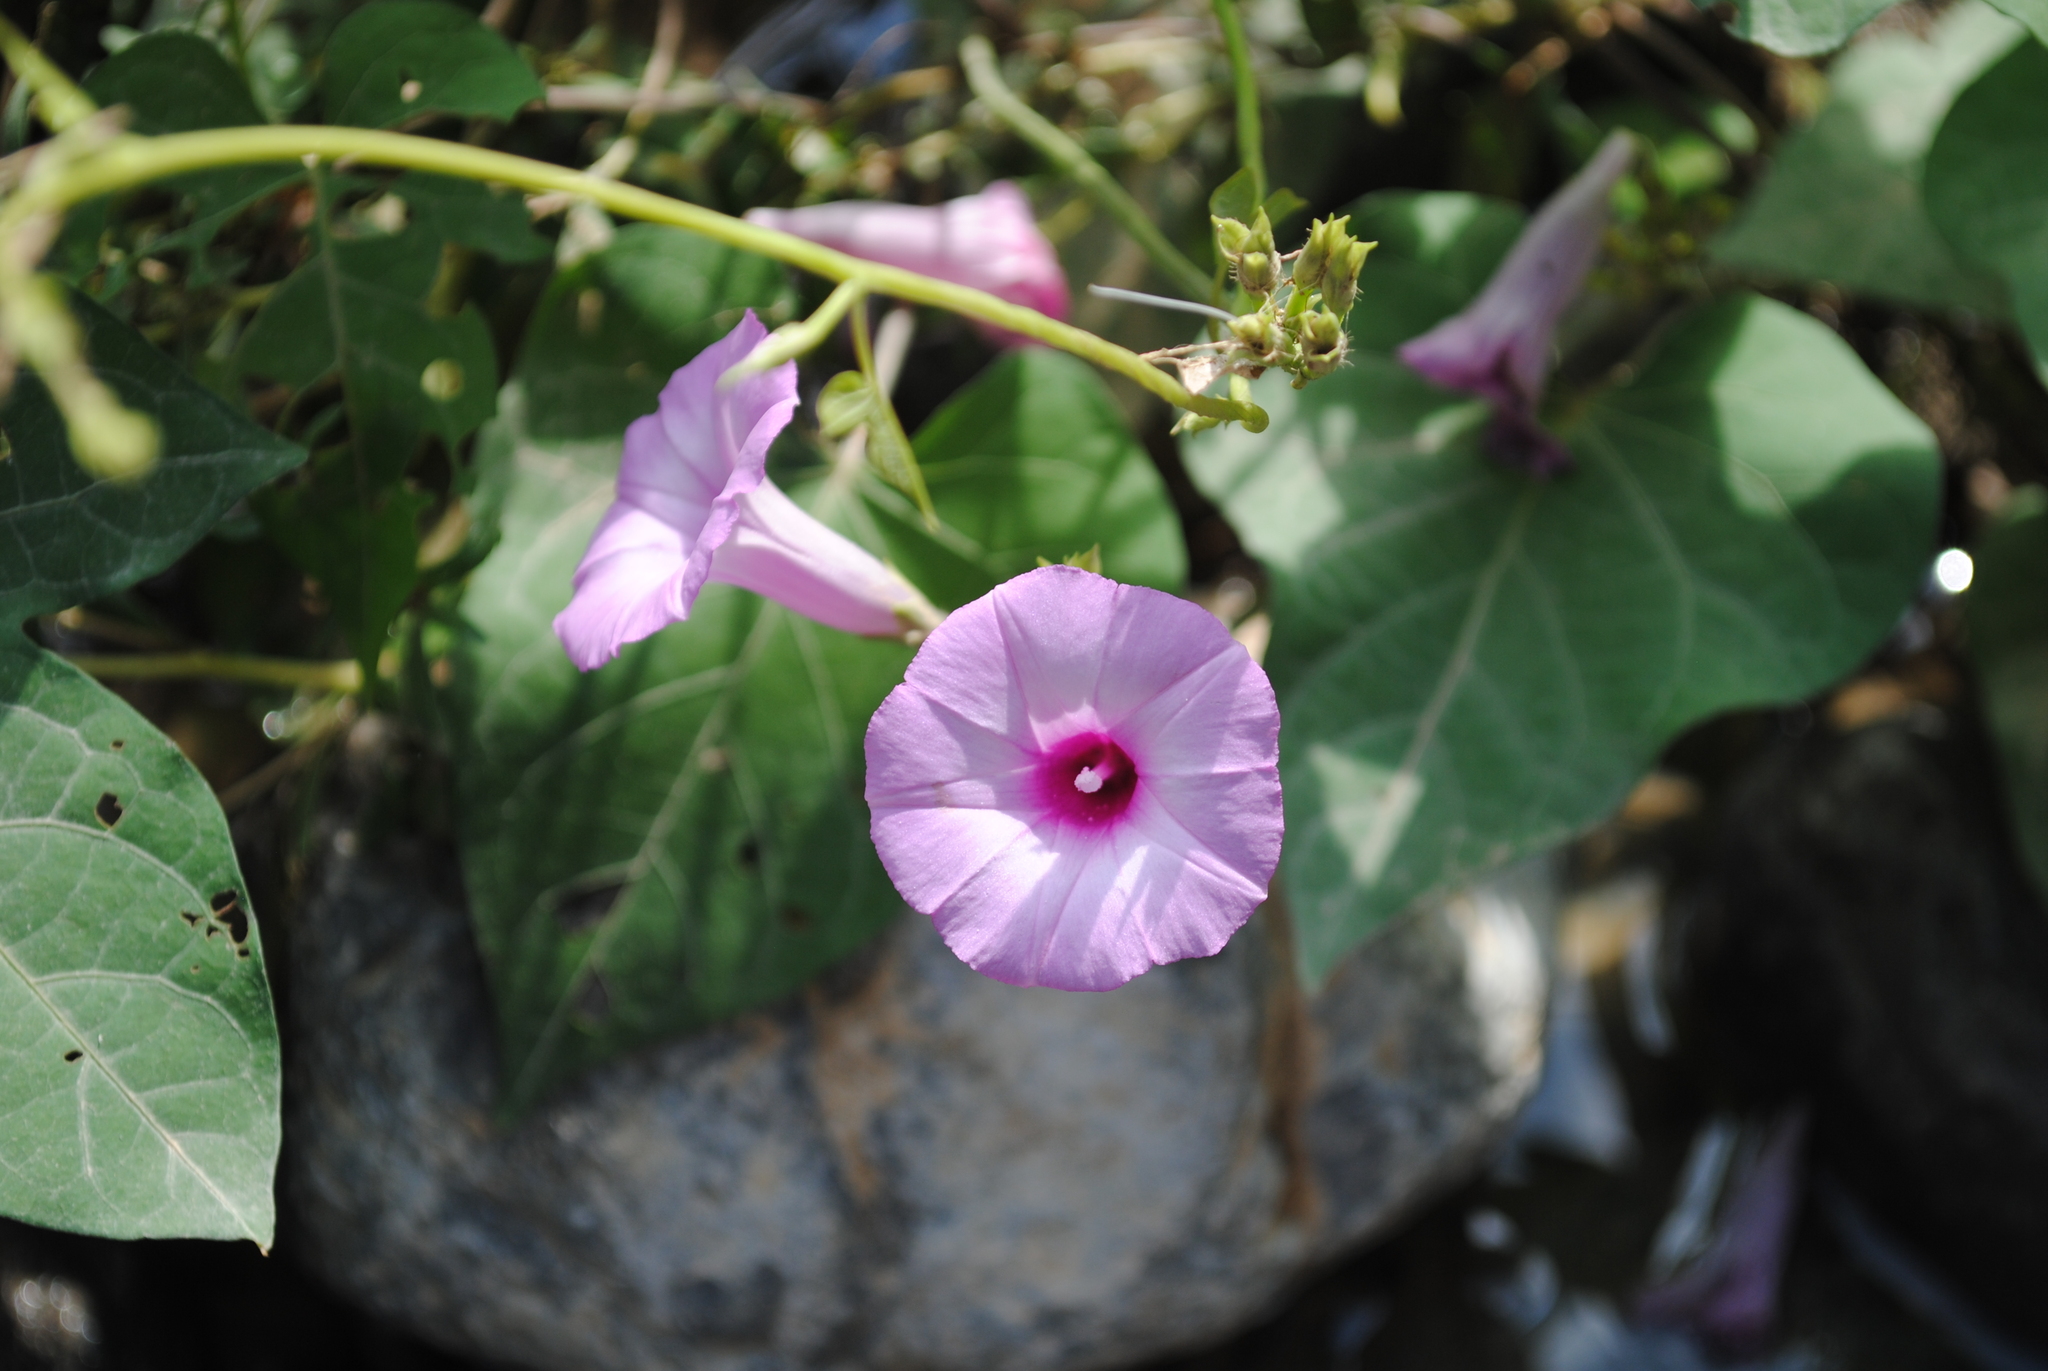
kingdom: Plantae
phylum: Tracheophyta
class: Magnoliopsida
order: Solanales
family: Convolvulaceae
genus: Ipomoea
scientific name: Ipomoea cordatotriloba
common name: Cotton morning glory
